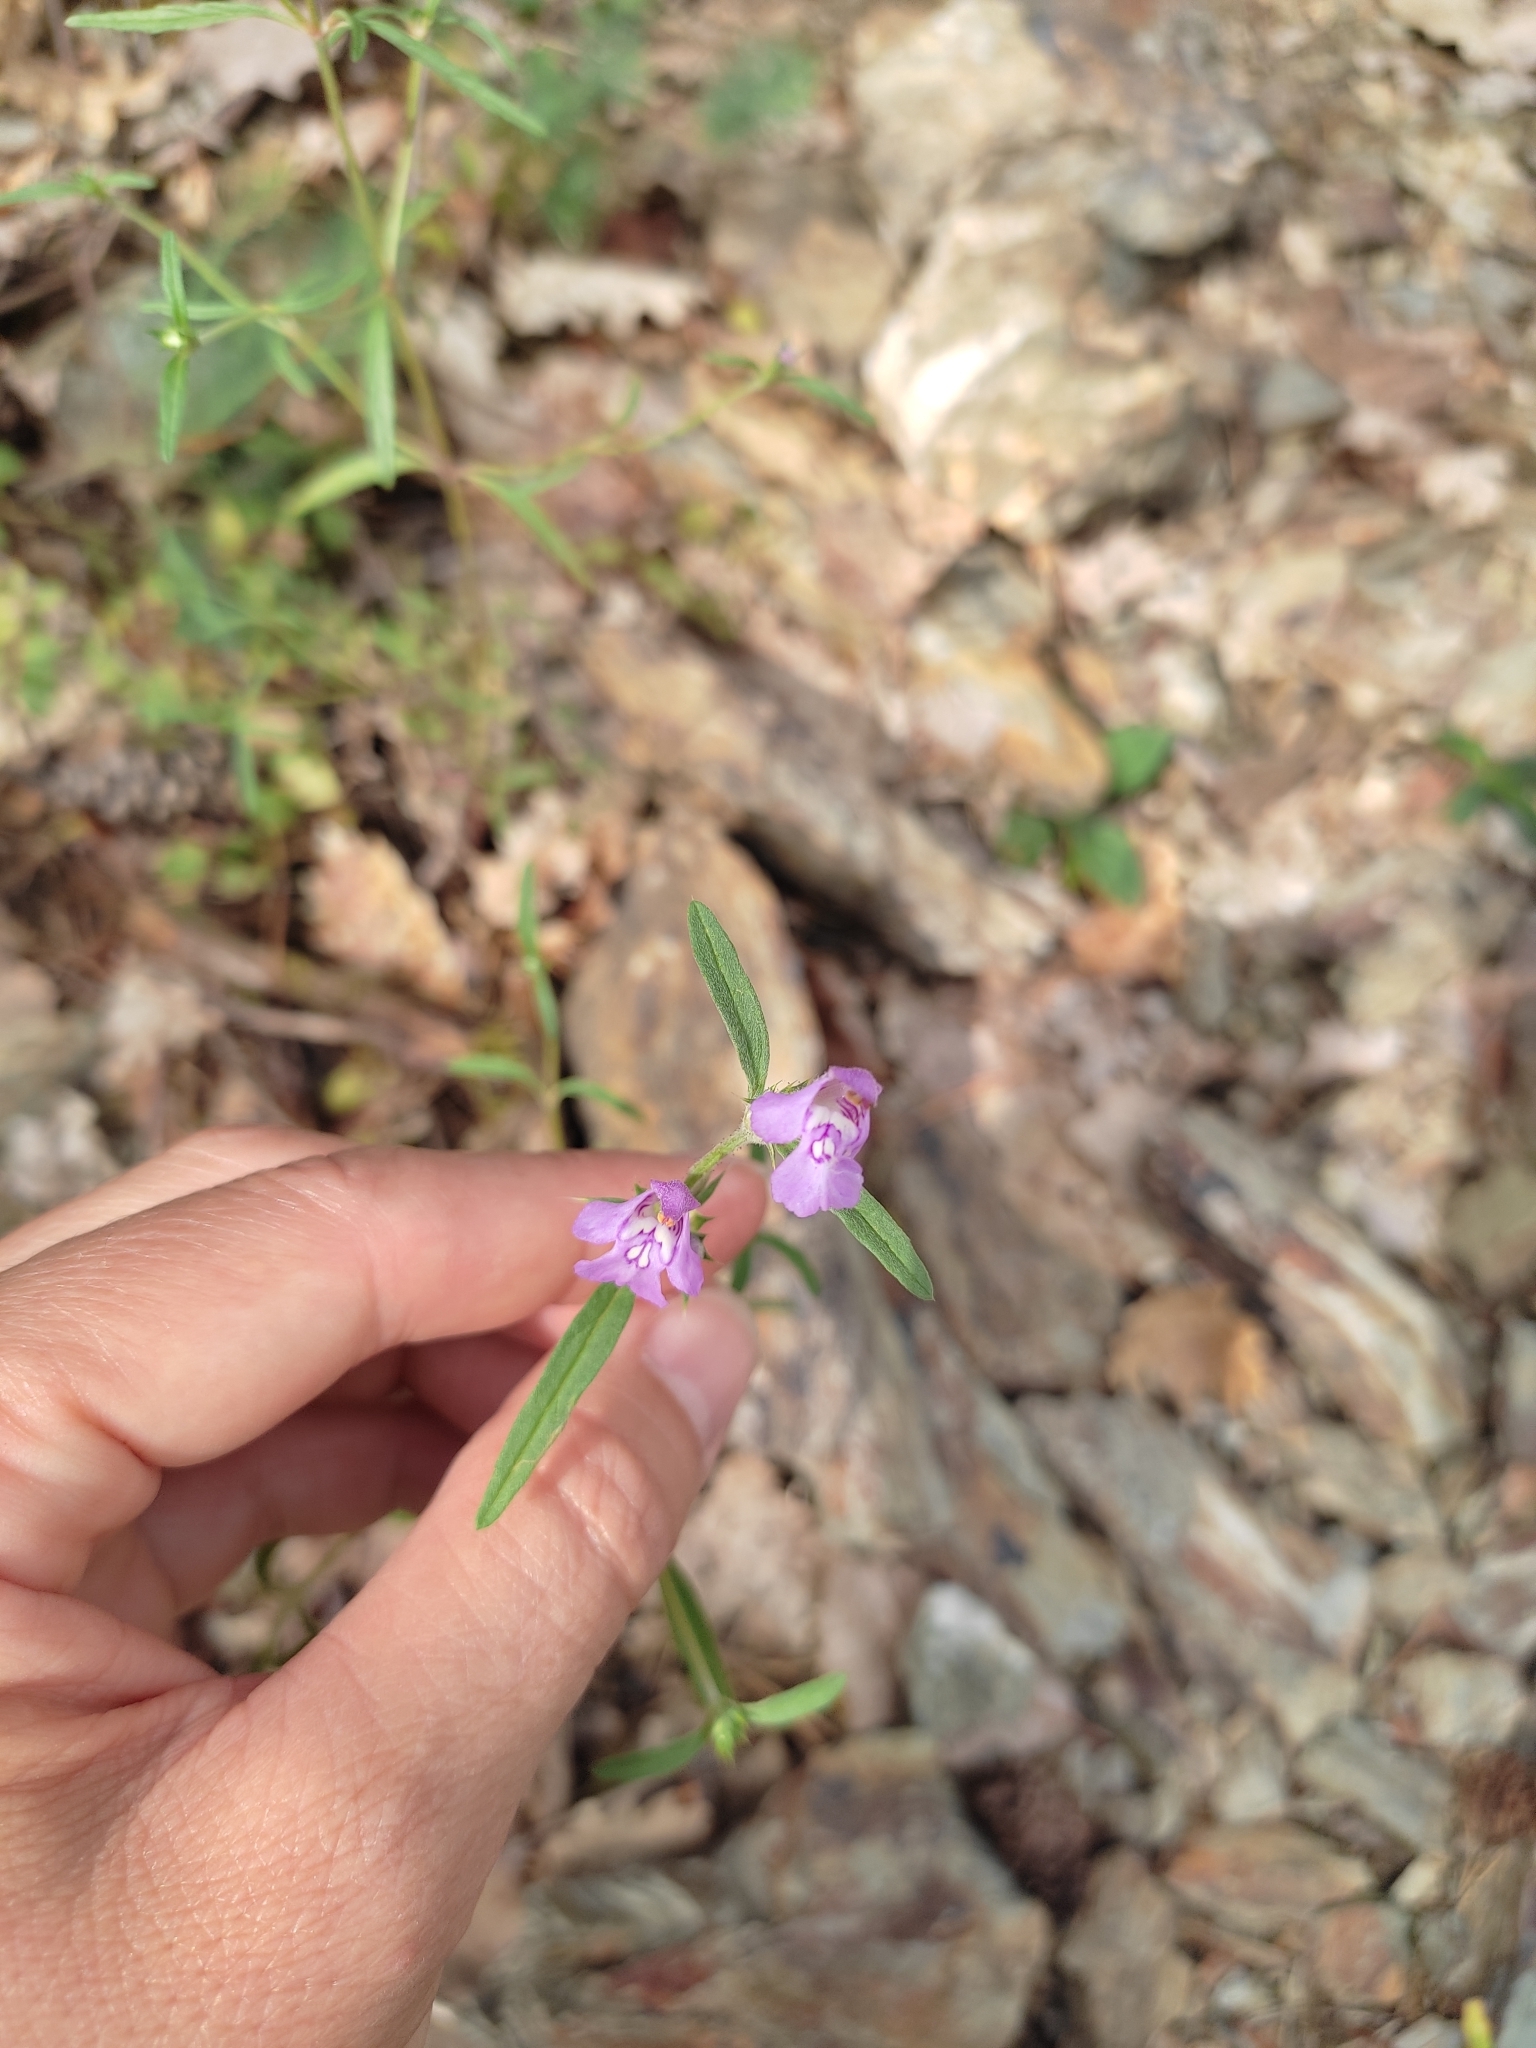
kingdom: Plantae
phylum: Tracheophyta
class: Magnoliopsida
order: Lamiales
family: Lamiaceae
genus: Galeopsis
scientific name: Galeopsis angustifolia
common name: Red hemp-nettle
